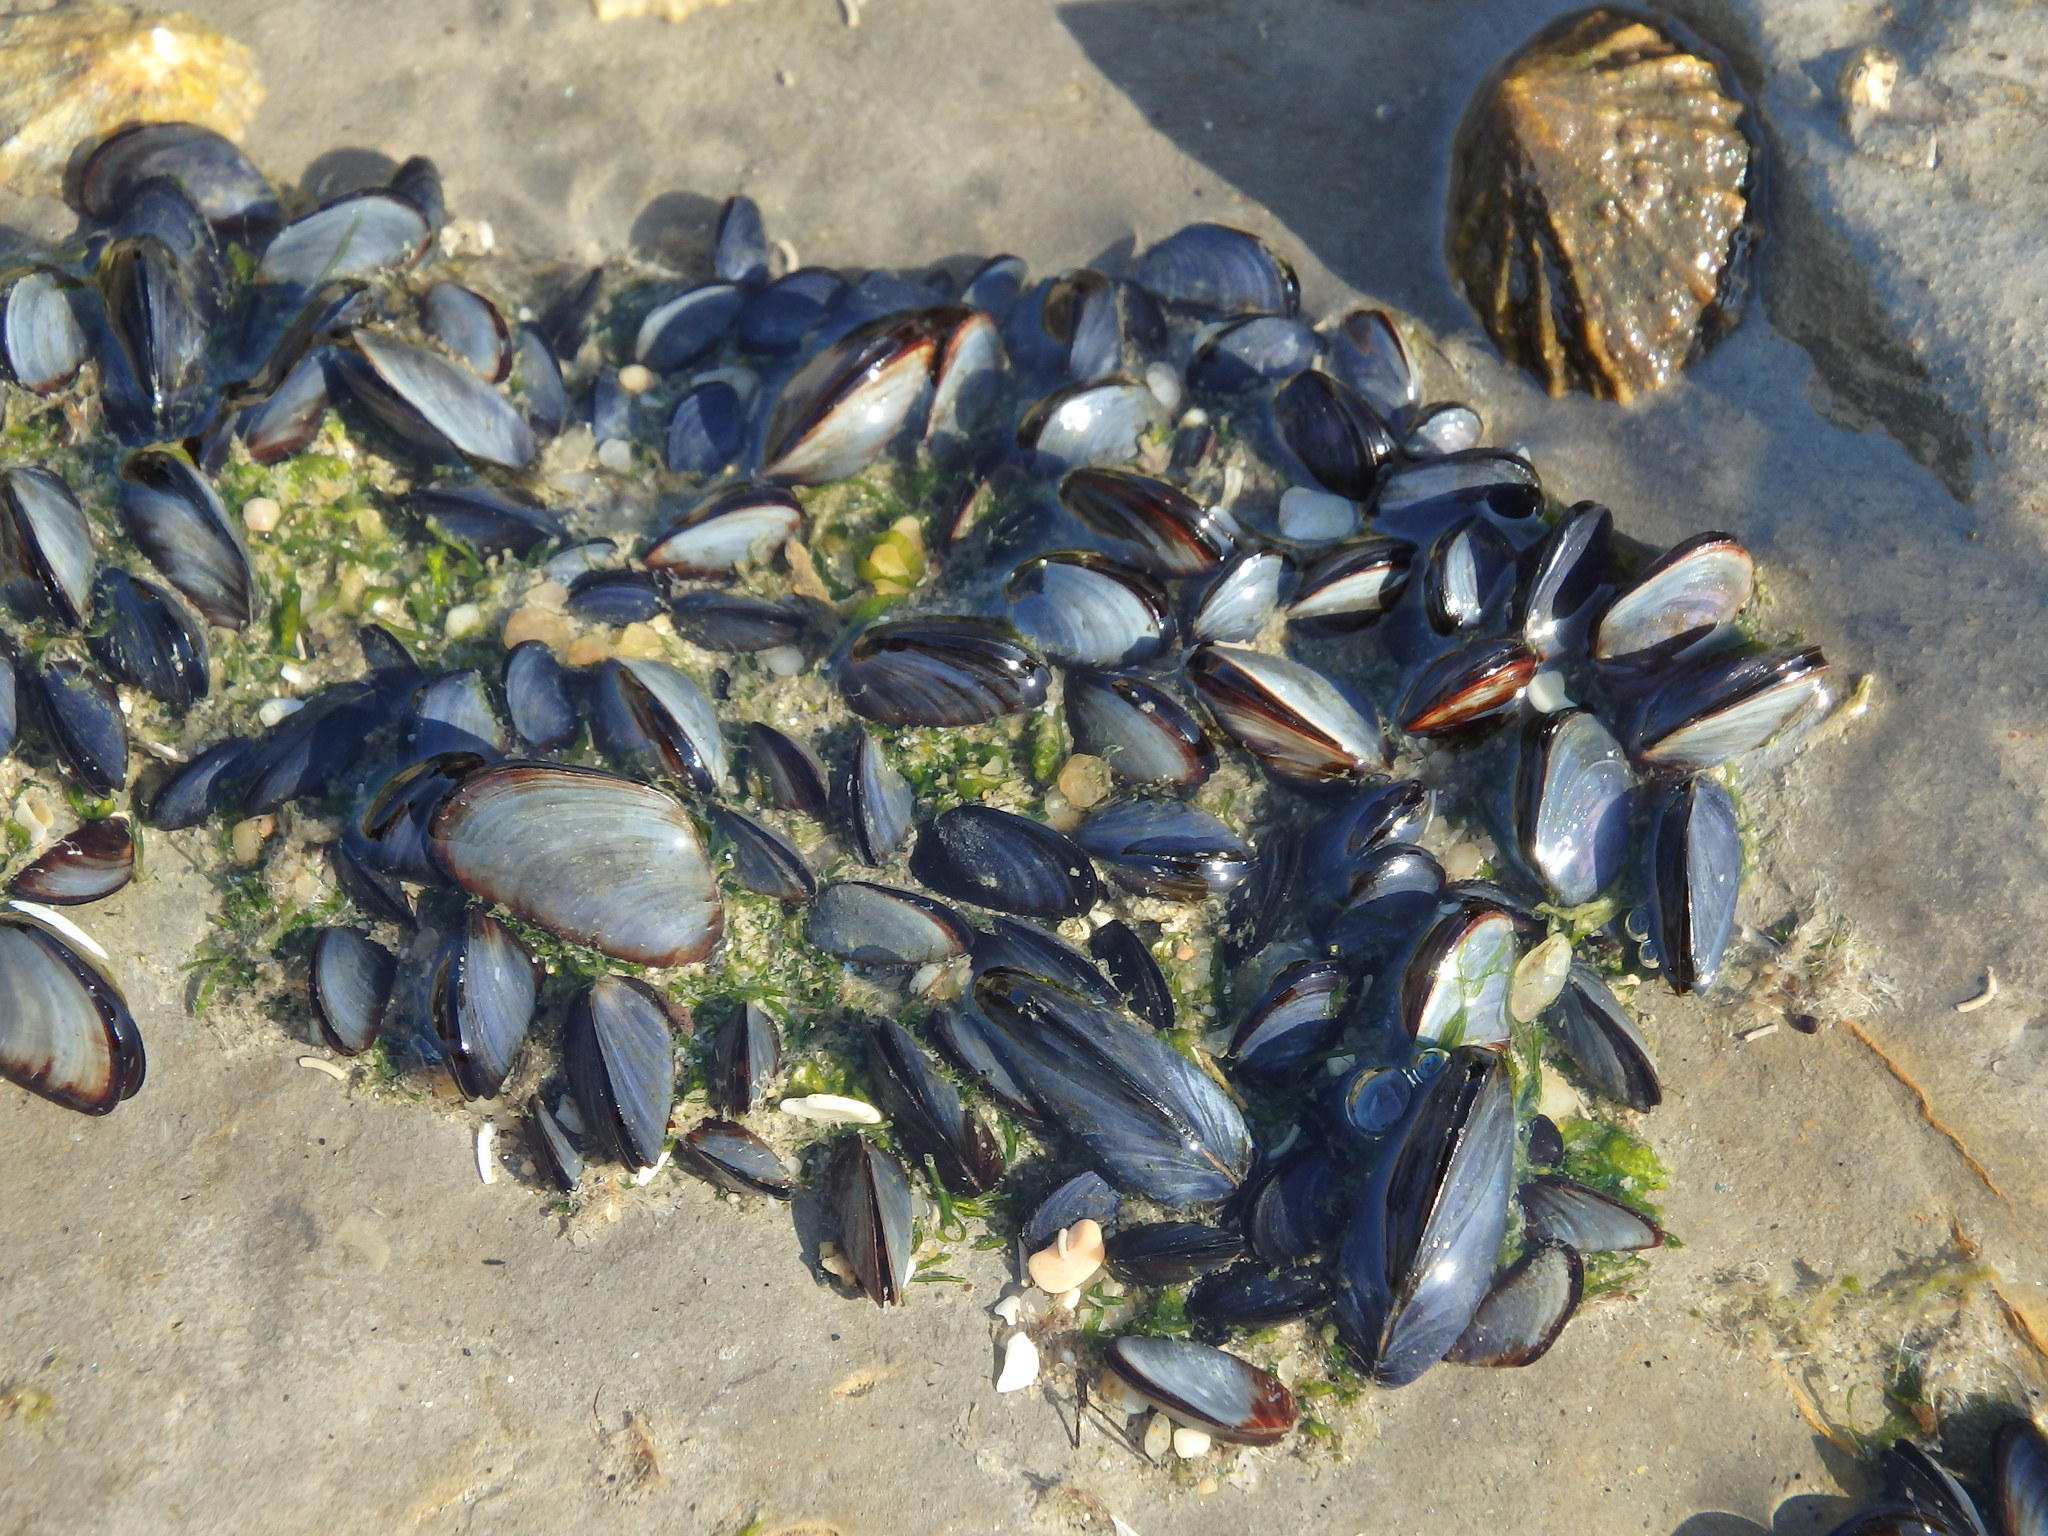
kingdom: Animalia
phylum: Mollusca
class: Bivalvia
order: Mytilida
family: Mytilidae
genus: Mytilus
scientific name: Mytilus galloprovincialis
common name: Mediterranean mussel
